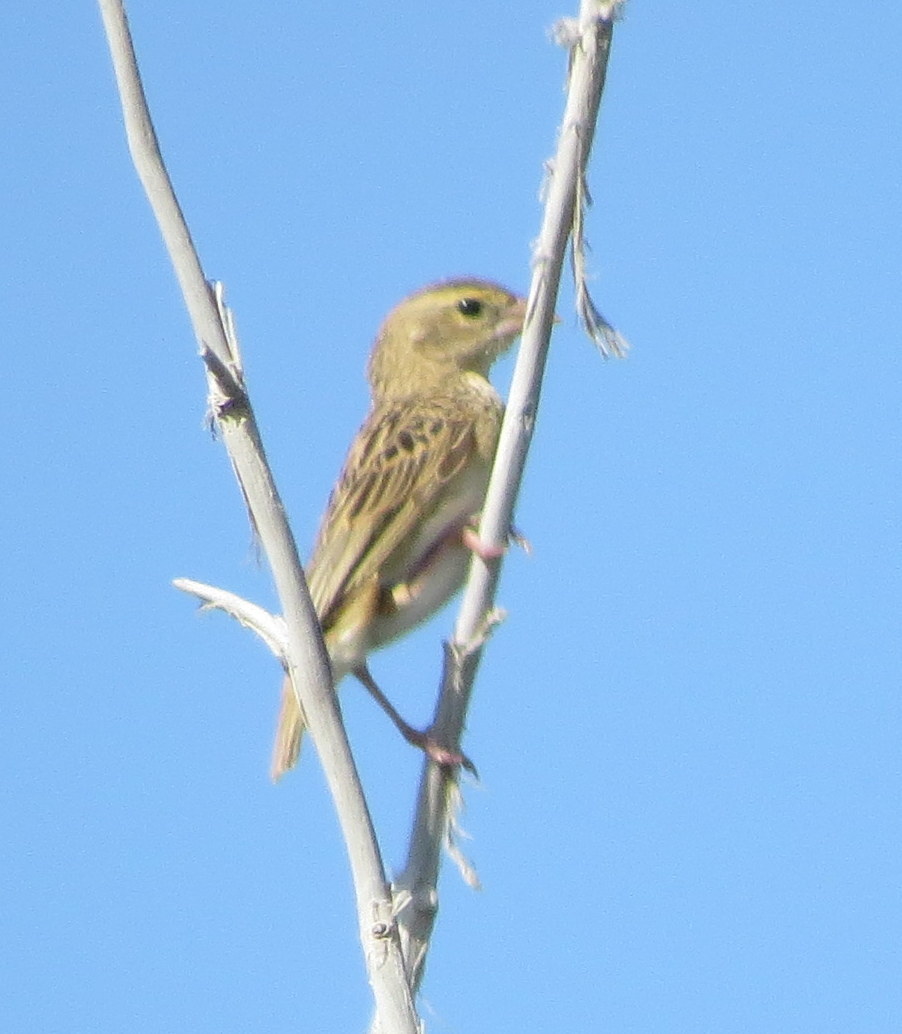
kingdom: Animalia
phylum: Chordata
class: Aves
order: Passeriformes
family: Ploceidae
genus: Euplectes
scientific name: Euplectes franciscanus
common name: Northern red bishop
